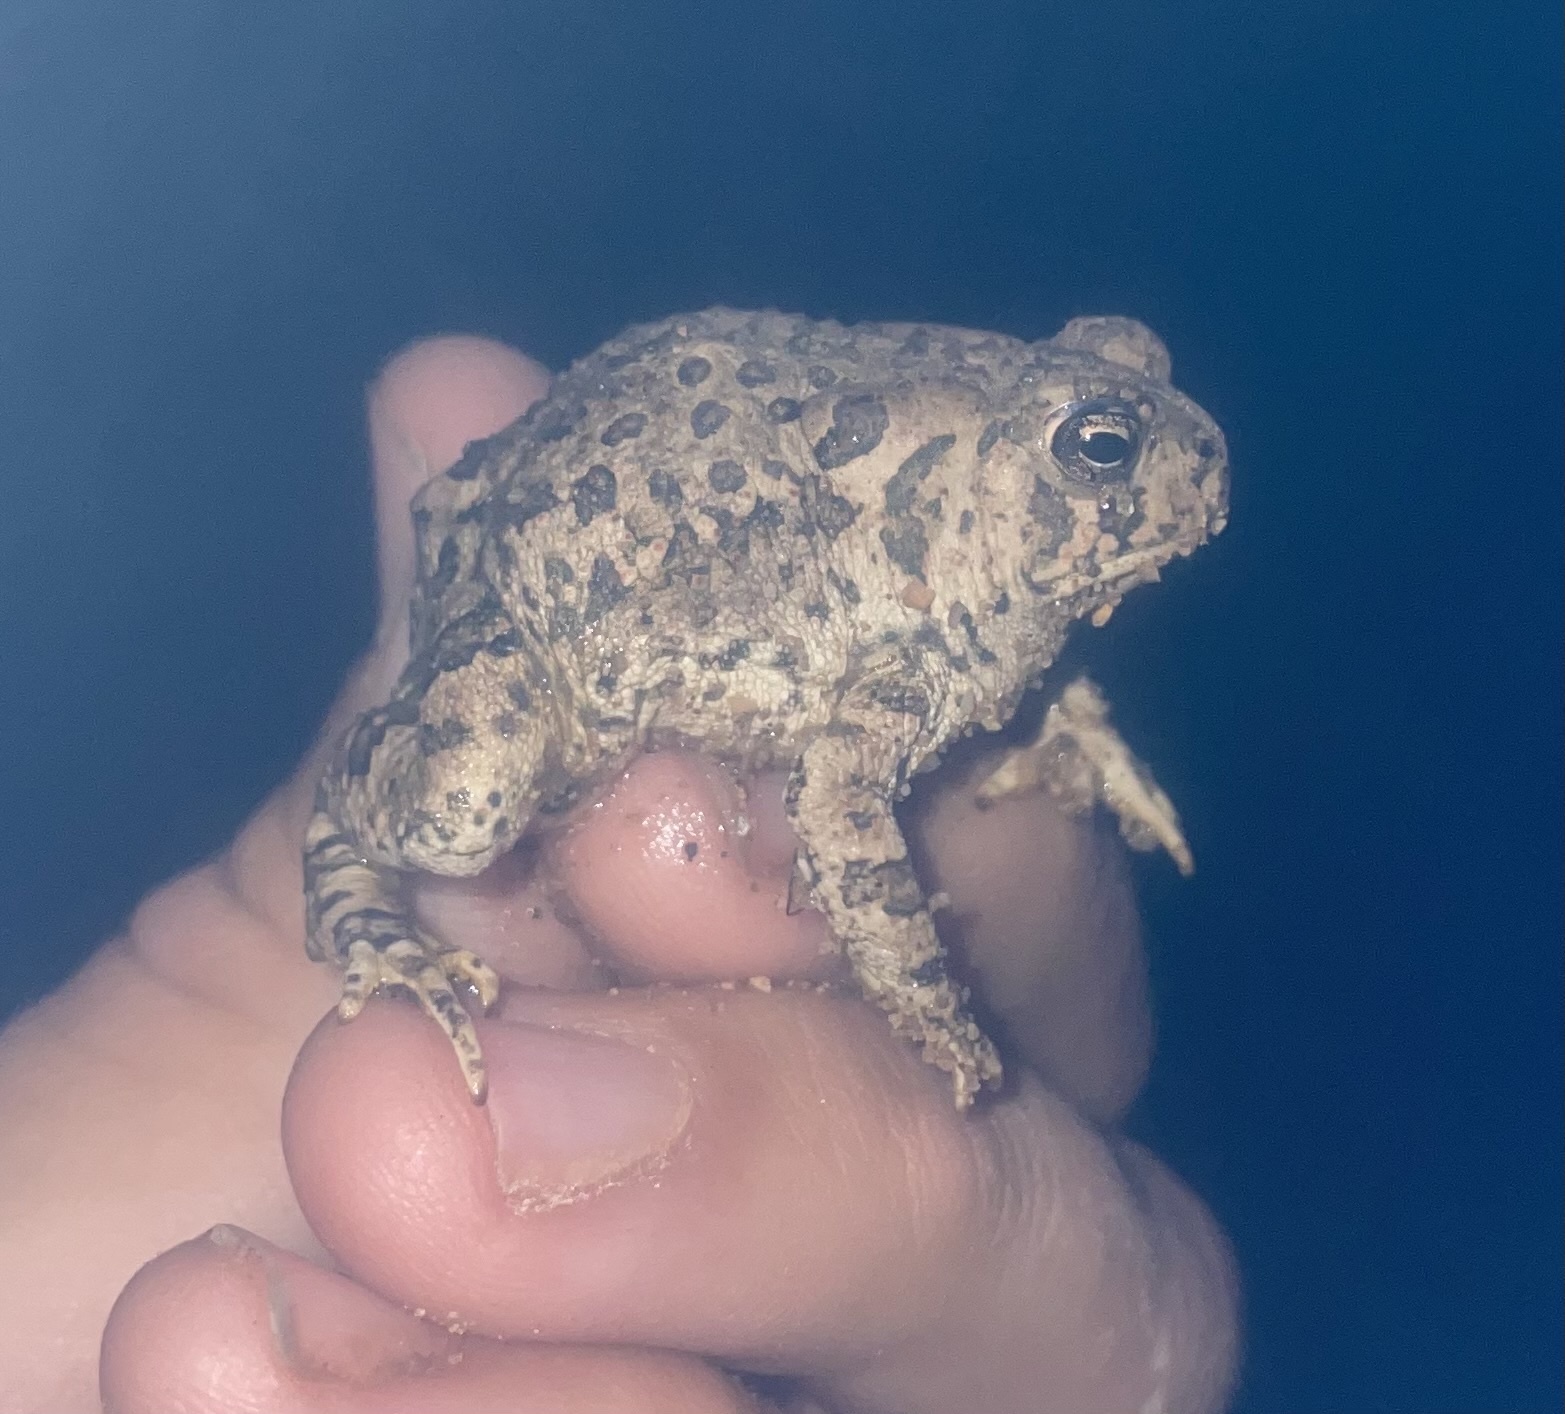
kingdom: Animalia
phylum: Chordata
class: Amphibia
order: Anura
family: Bufonidae
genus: Anaxyrus
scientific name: Anaxyrus woodhousii
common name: Woodhouse's toad
